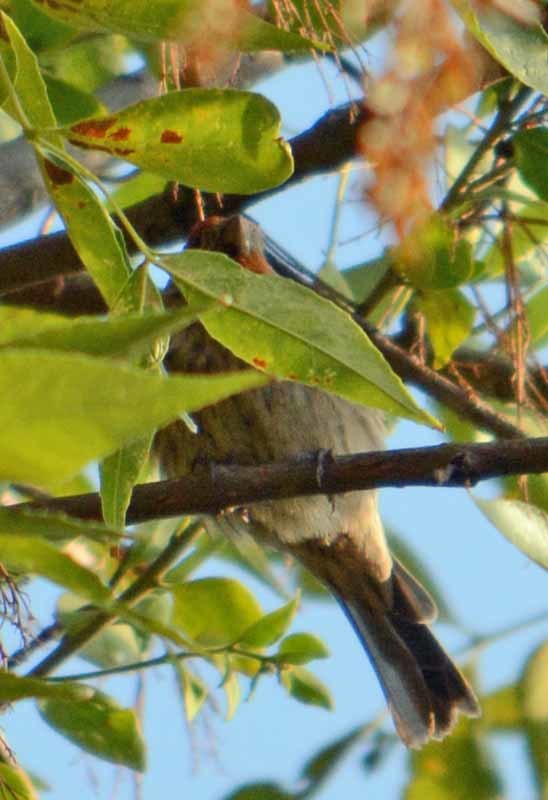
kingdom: Animalia
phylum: Chordata
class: Aves
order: Passeriformes
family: Fringillidae
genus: Haemorhous
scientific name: Haemorhous mexicanus
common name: House finch
